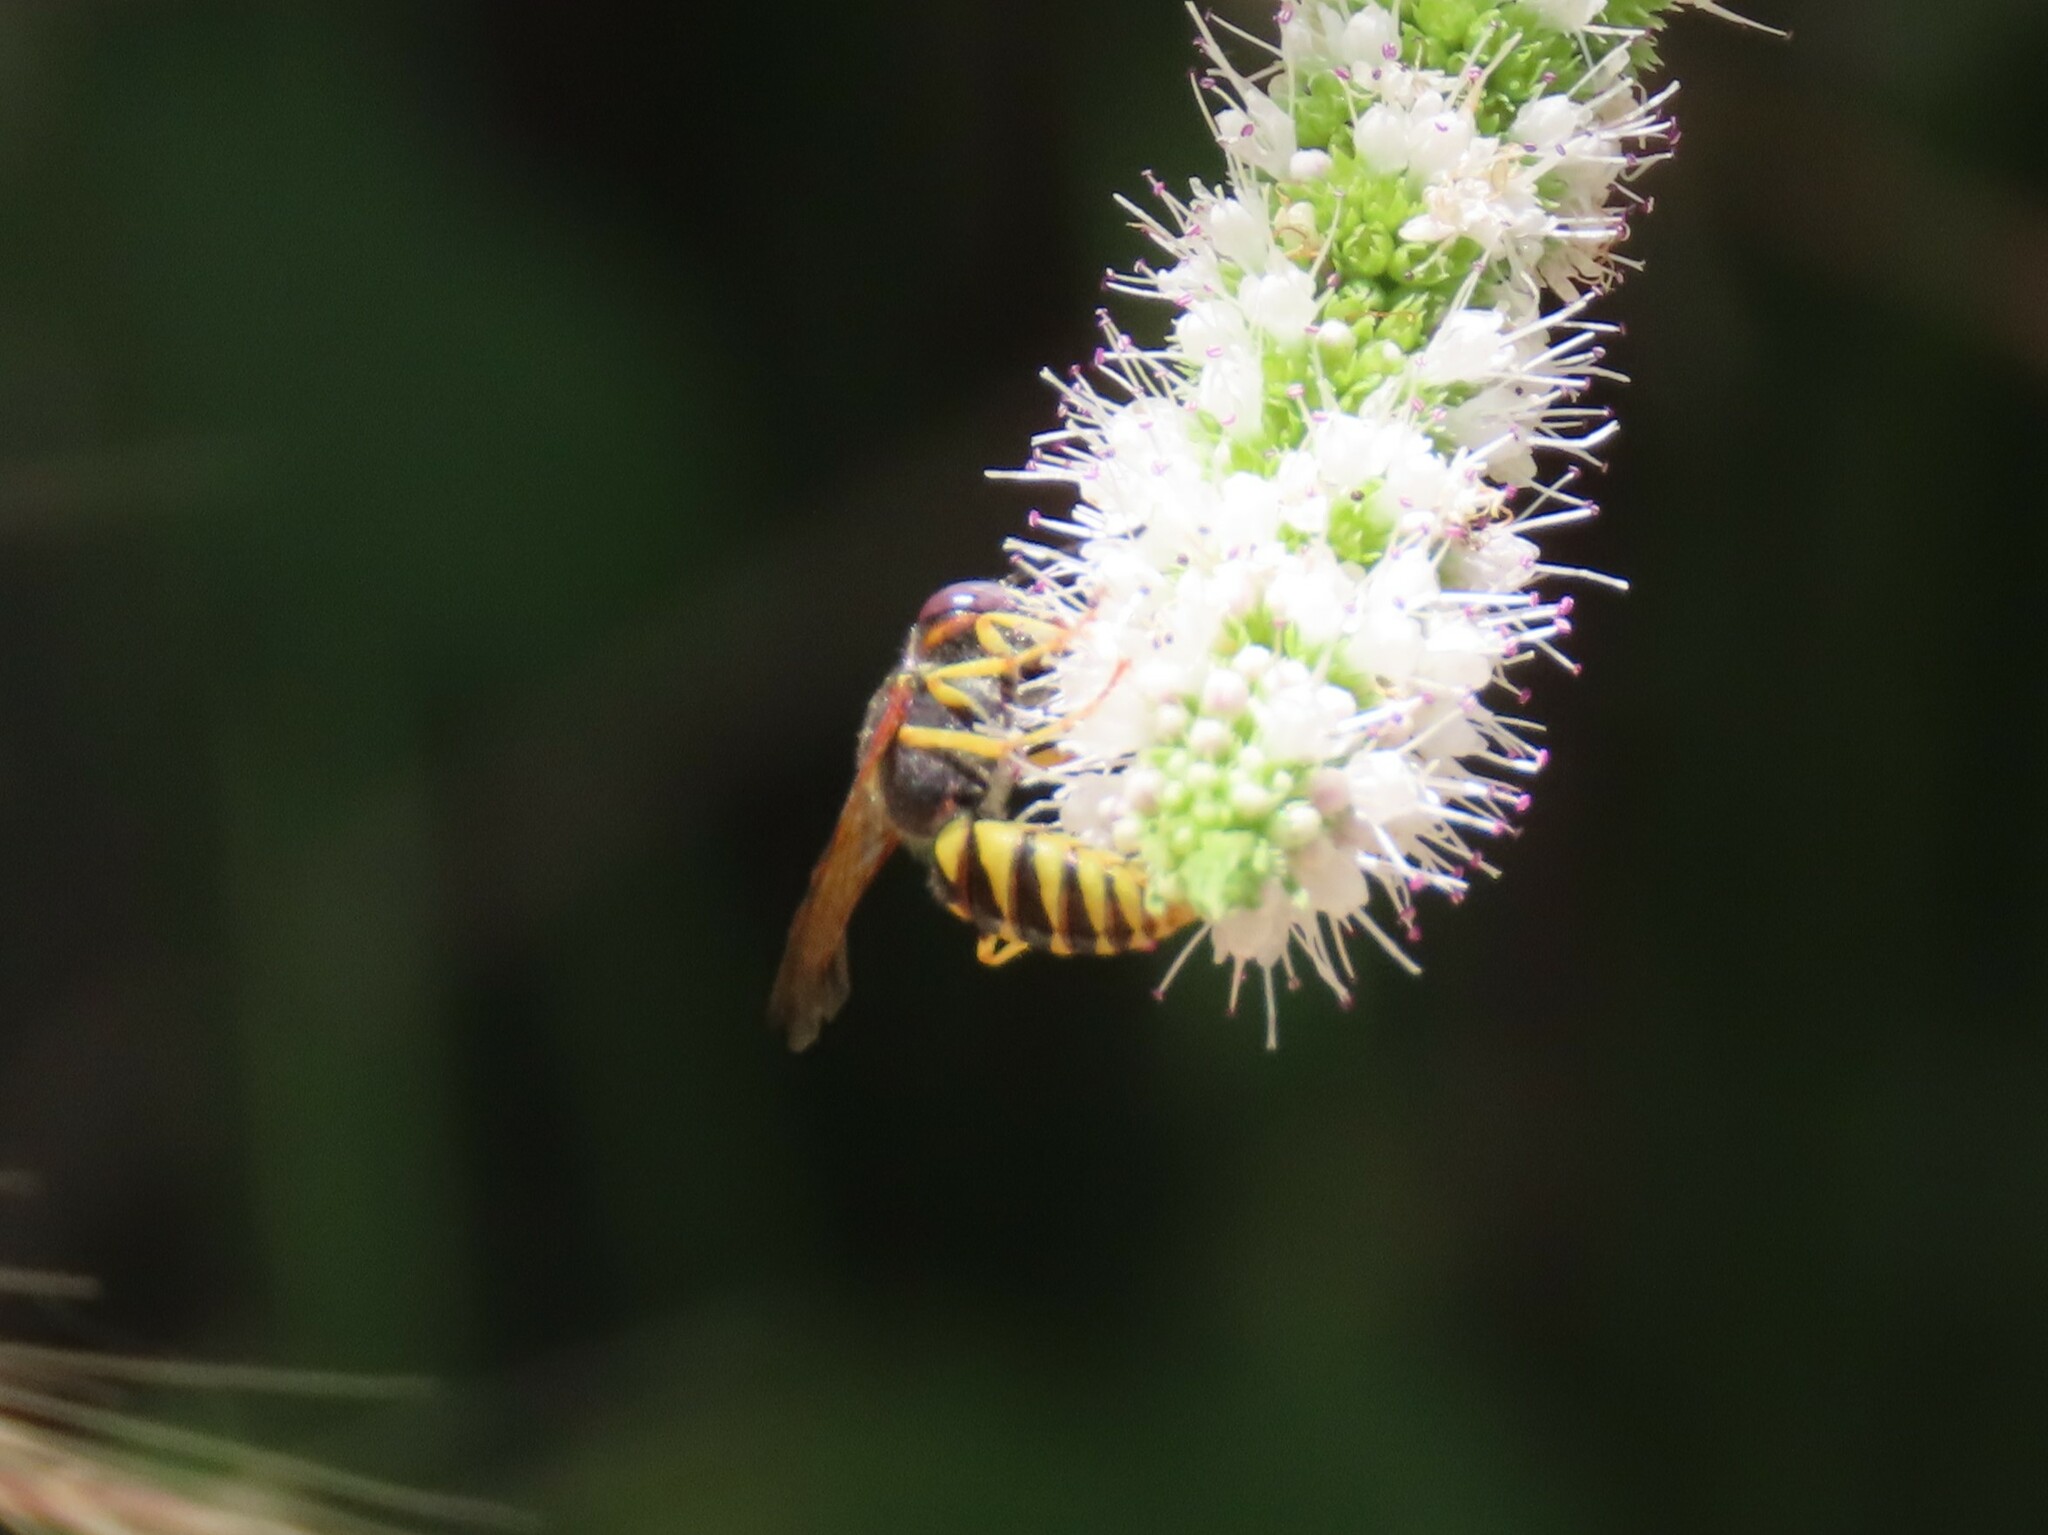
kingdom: Animalia
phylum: Arthropoda
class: Insecta
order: Hymenoptera
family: Crabronidae
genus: Philanthus
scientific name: Philanthus triangulum
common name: Bee wolf
